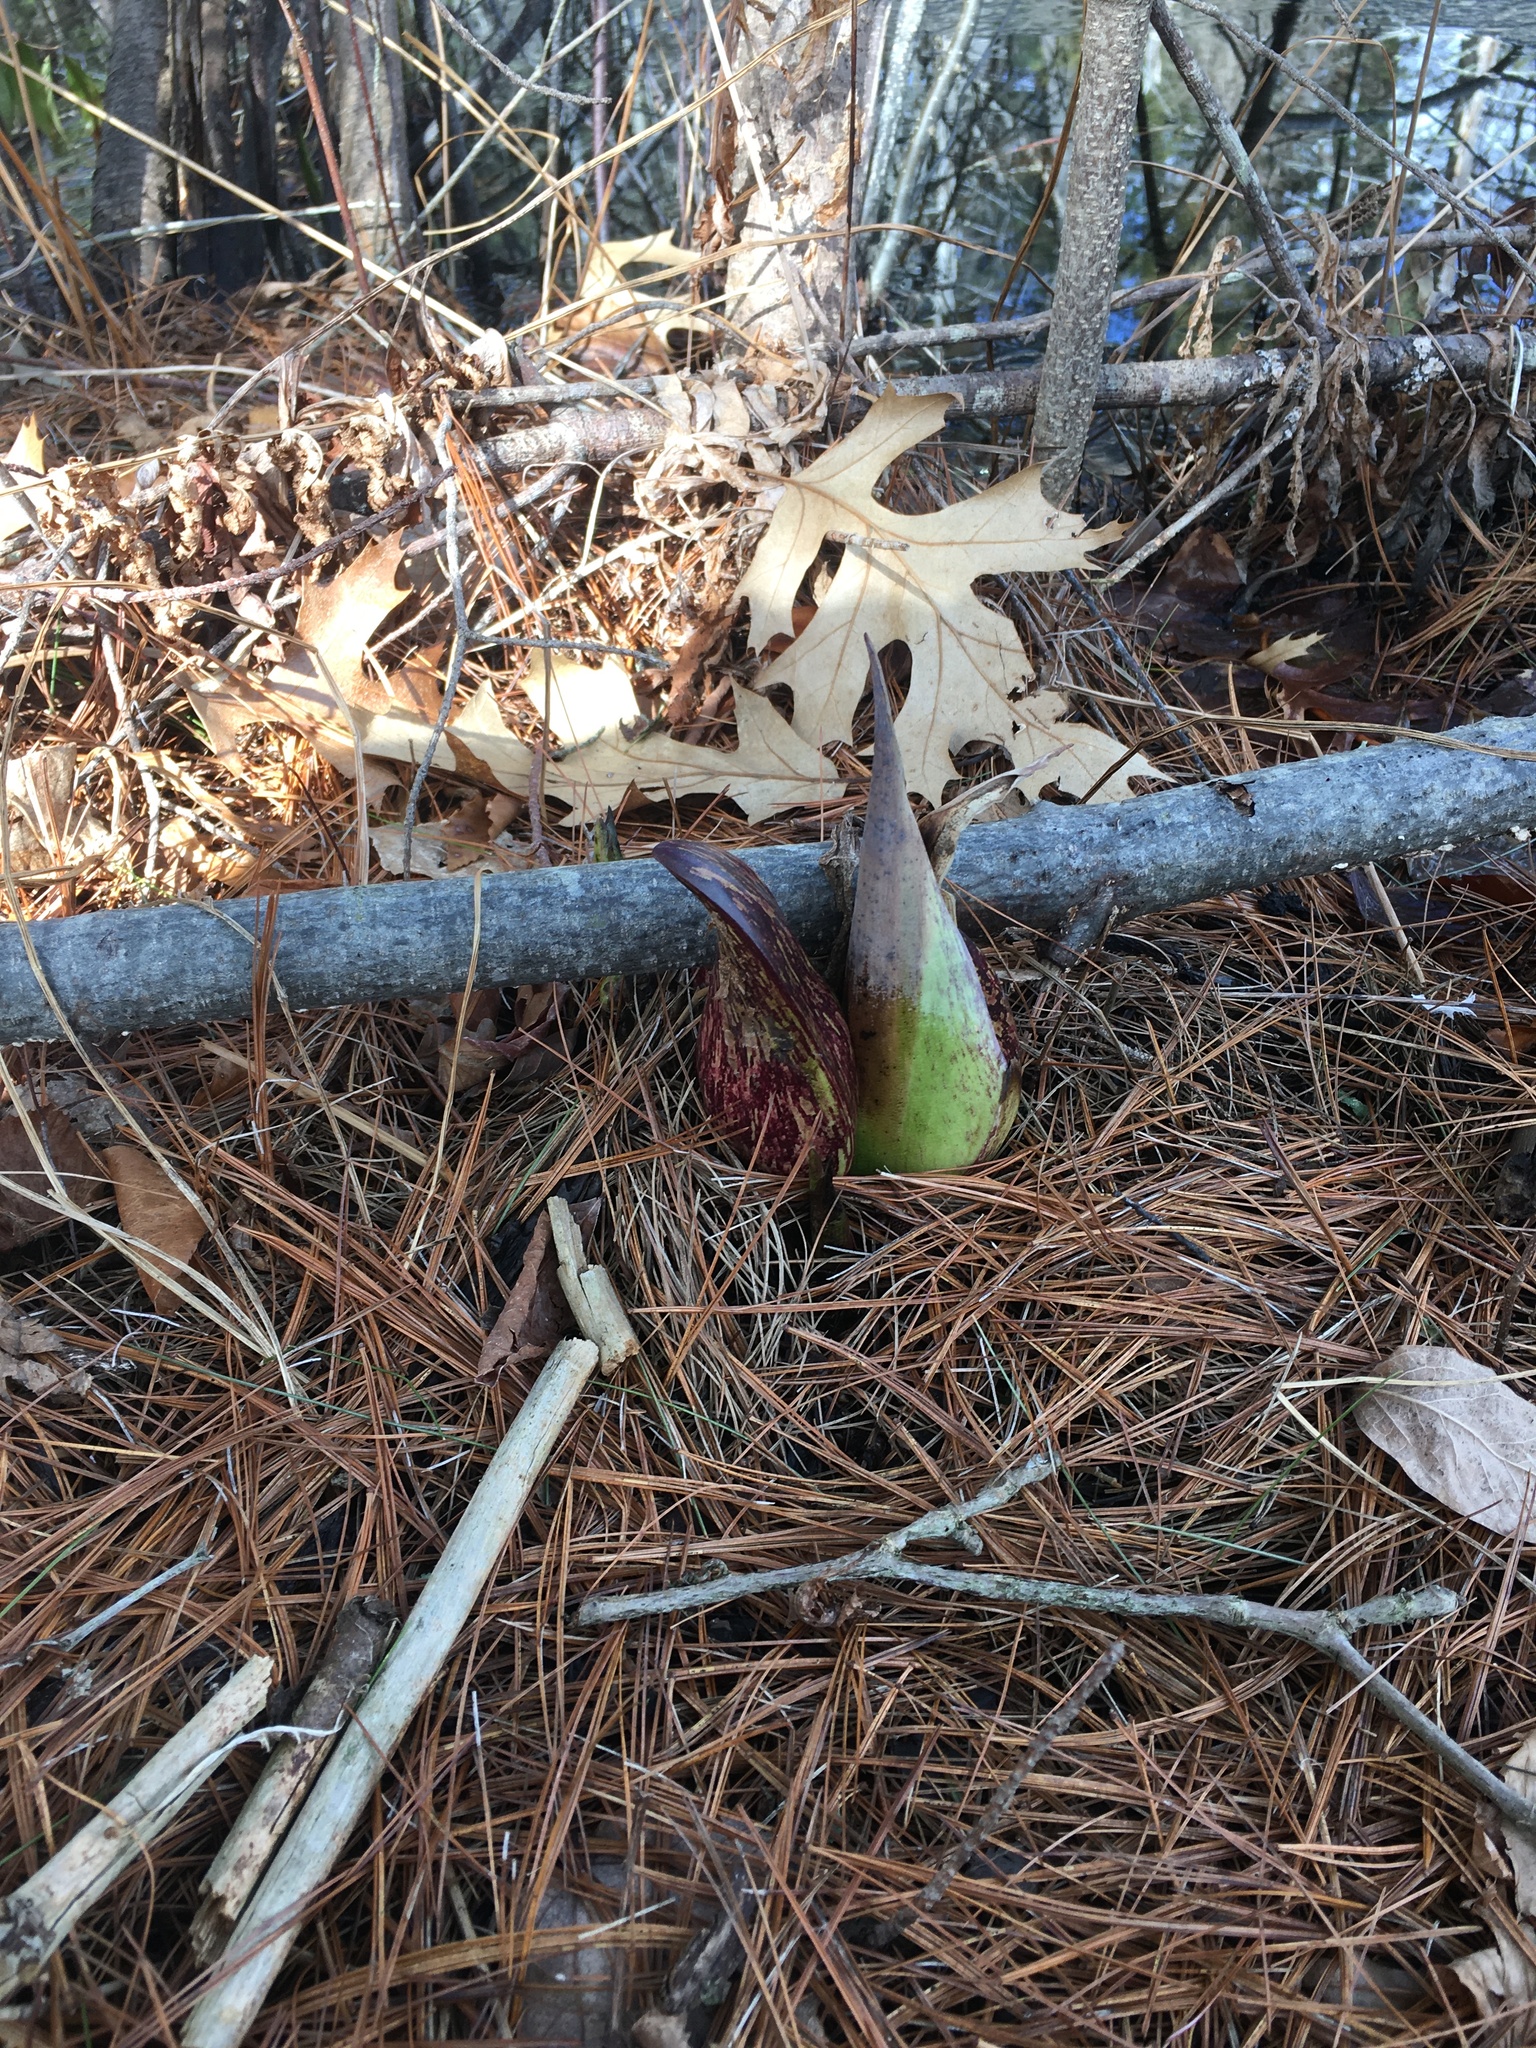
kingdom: Plantae
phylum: Tracheophyta
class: Liliopsida
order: Alismatales
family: Araceae
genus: Symplocarpus
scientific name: Symplocarpus foetidus
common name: Eastern skunk cabbage
